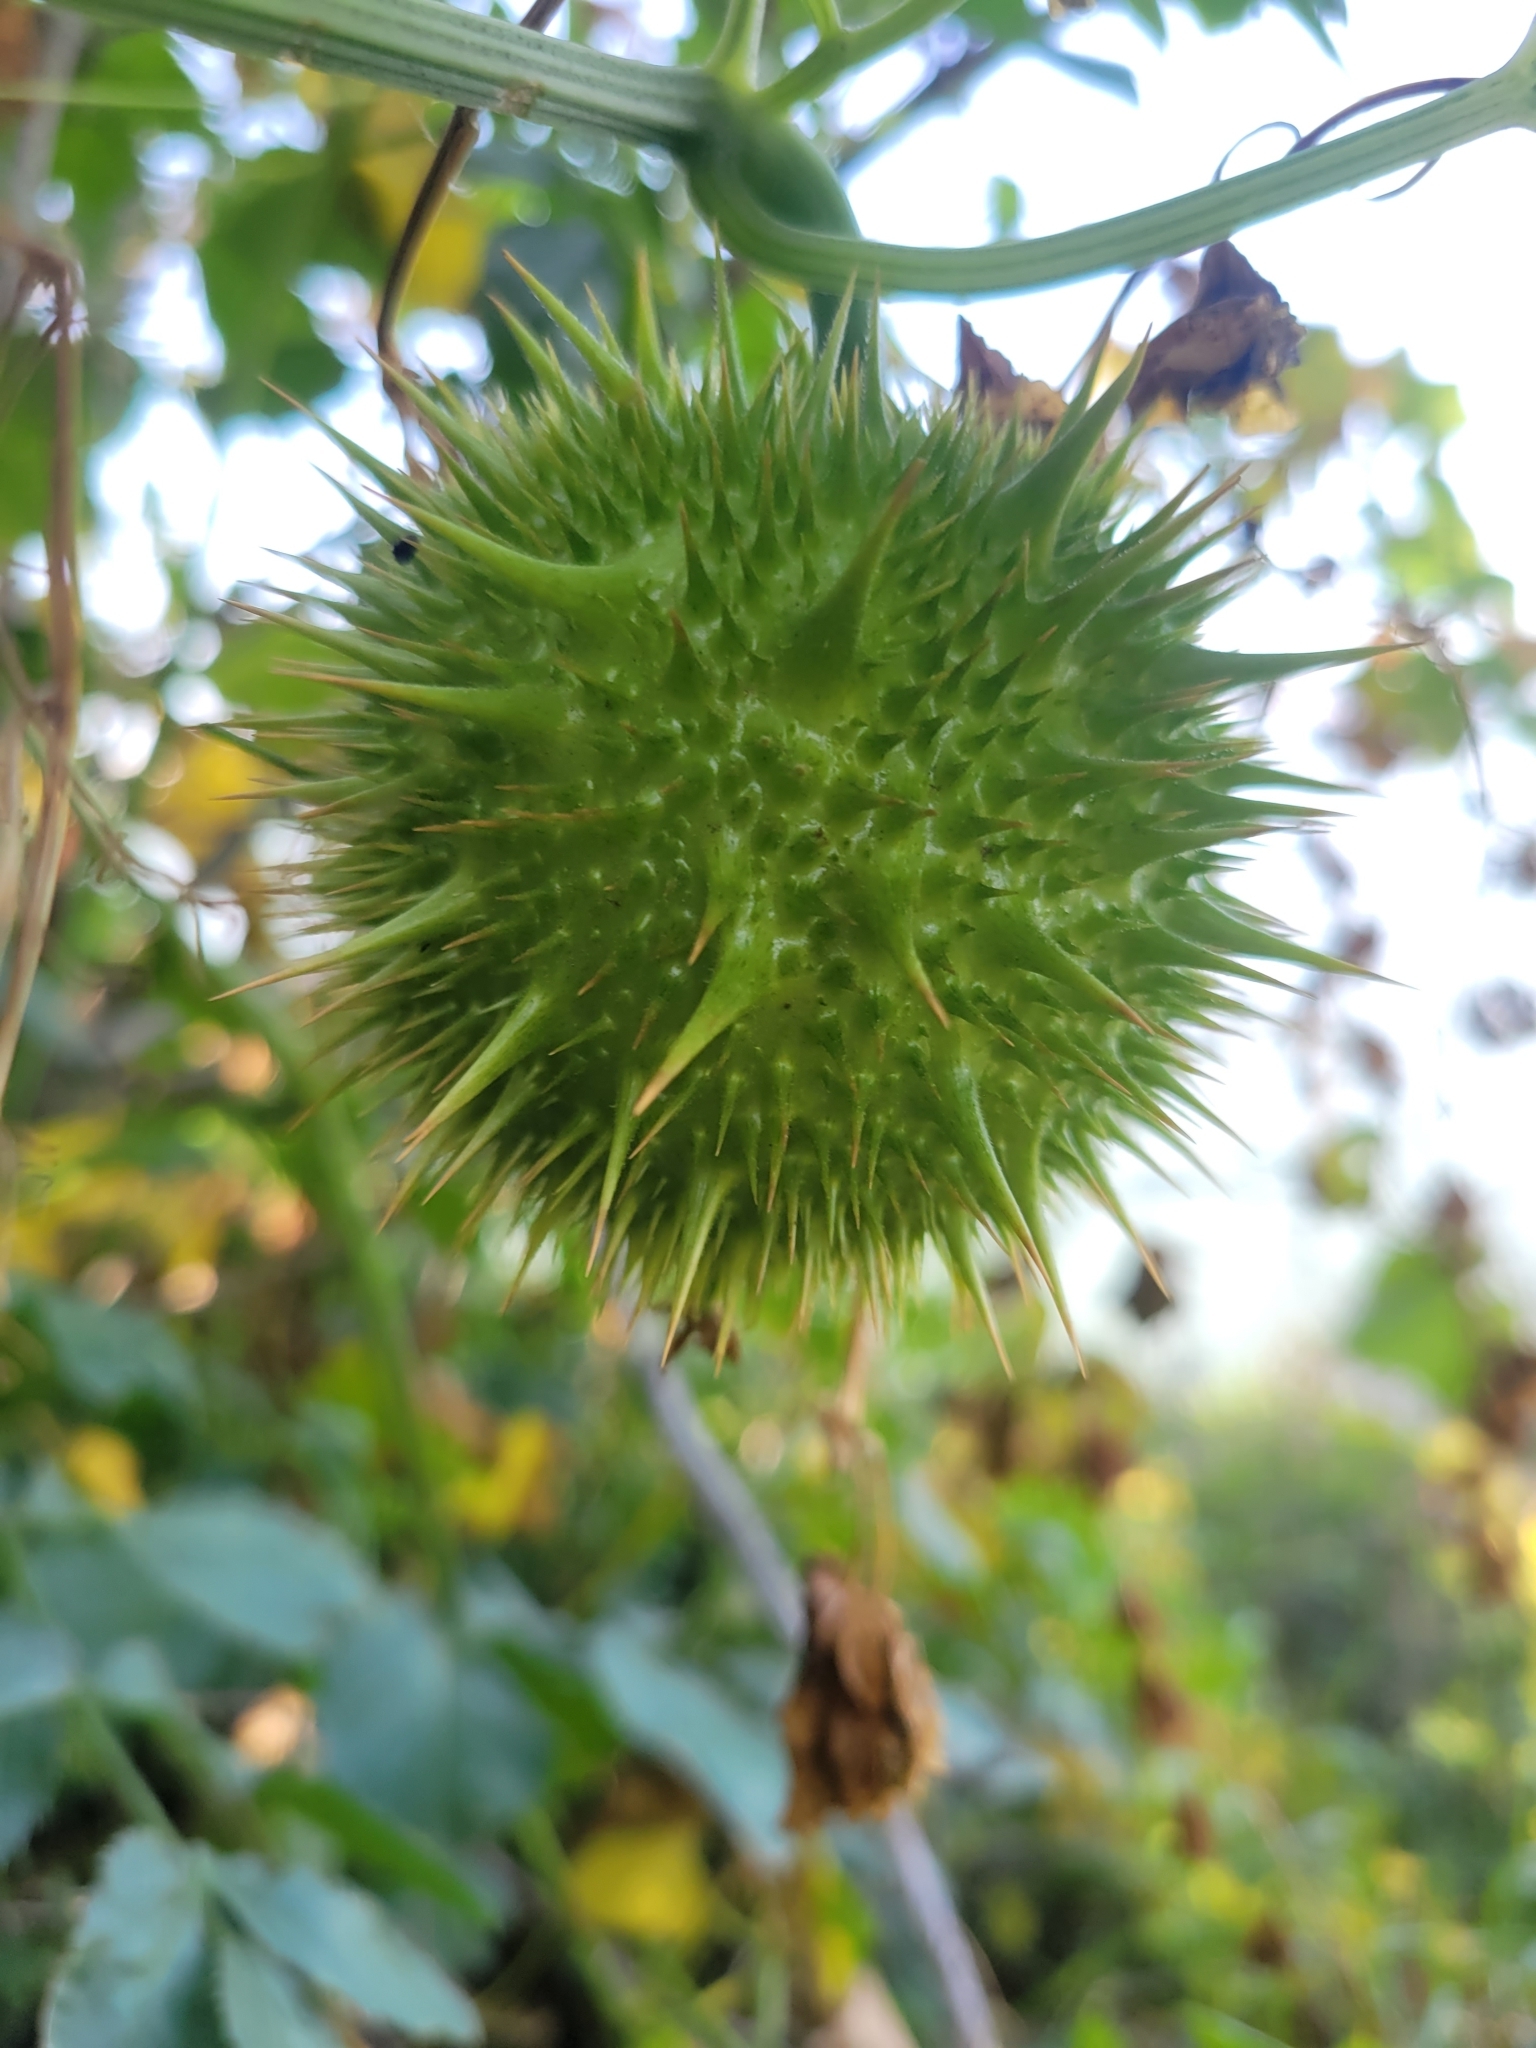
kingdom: Plantae
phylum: Tracheophyta
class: Magnoliopsida
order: Cucurbitales
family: Cucurbitaceae
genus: Marah
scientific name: Marah fabacea
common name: California manroot
